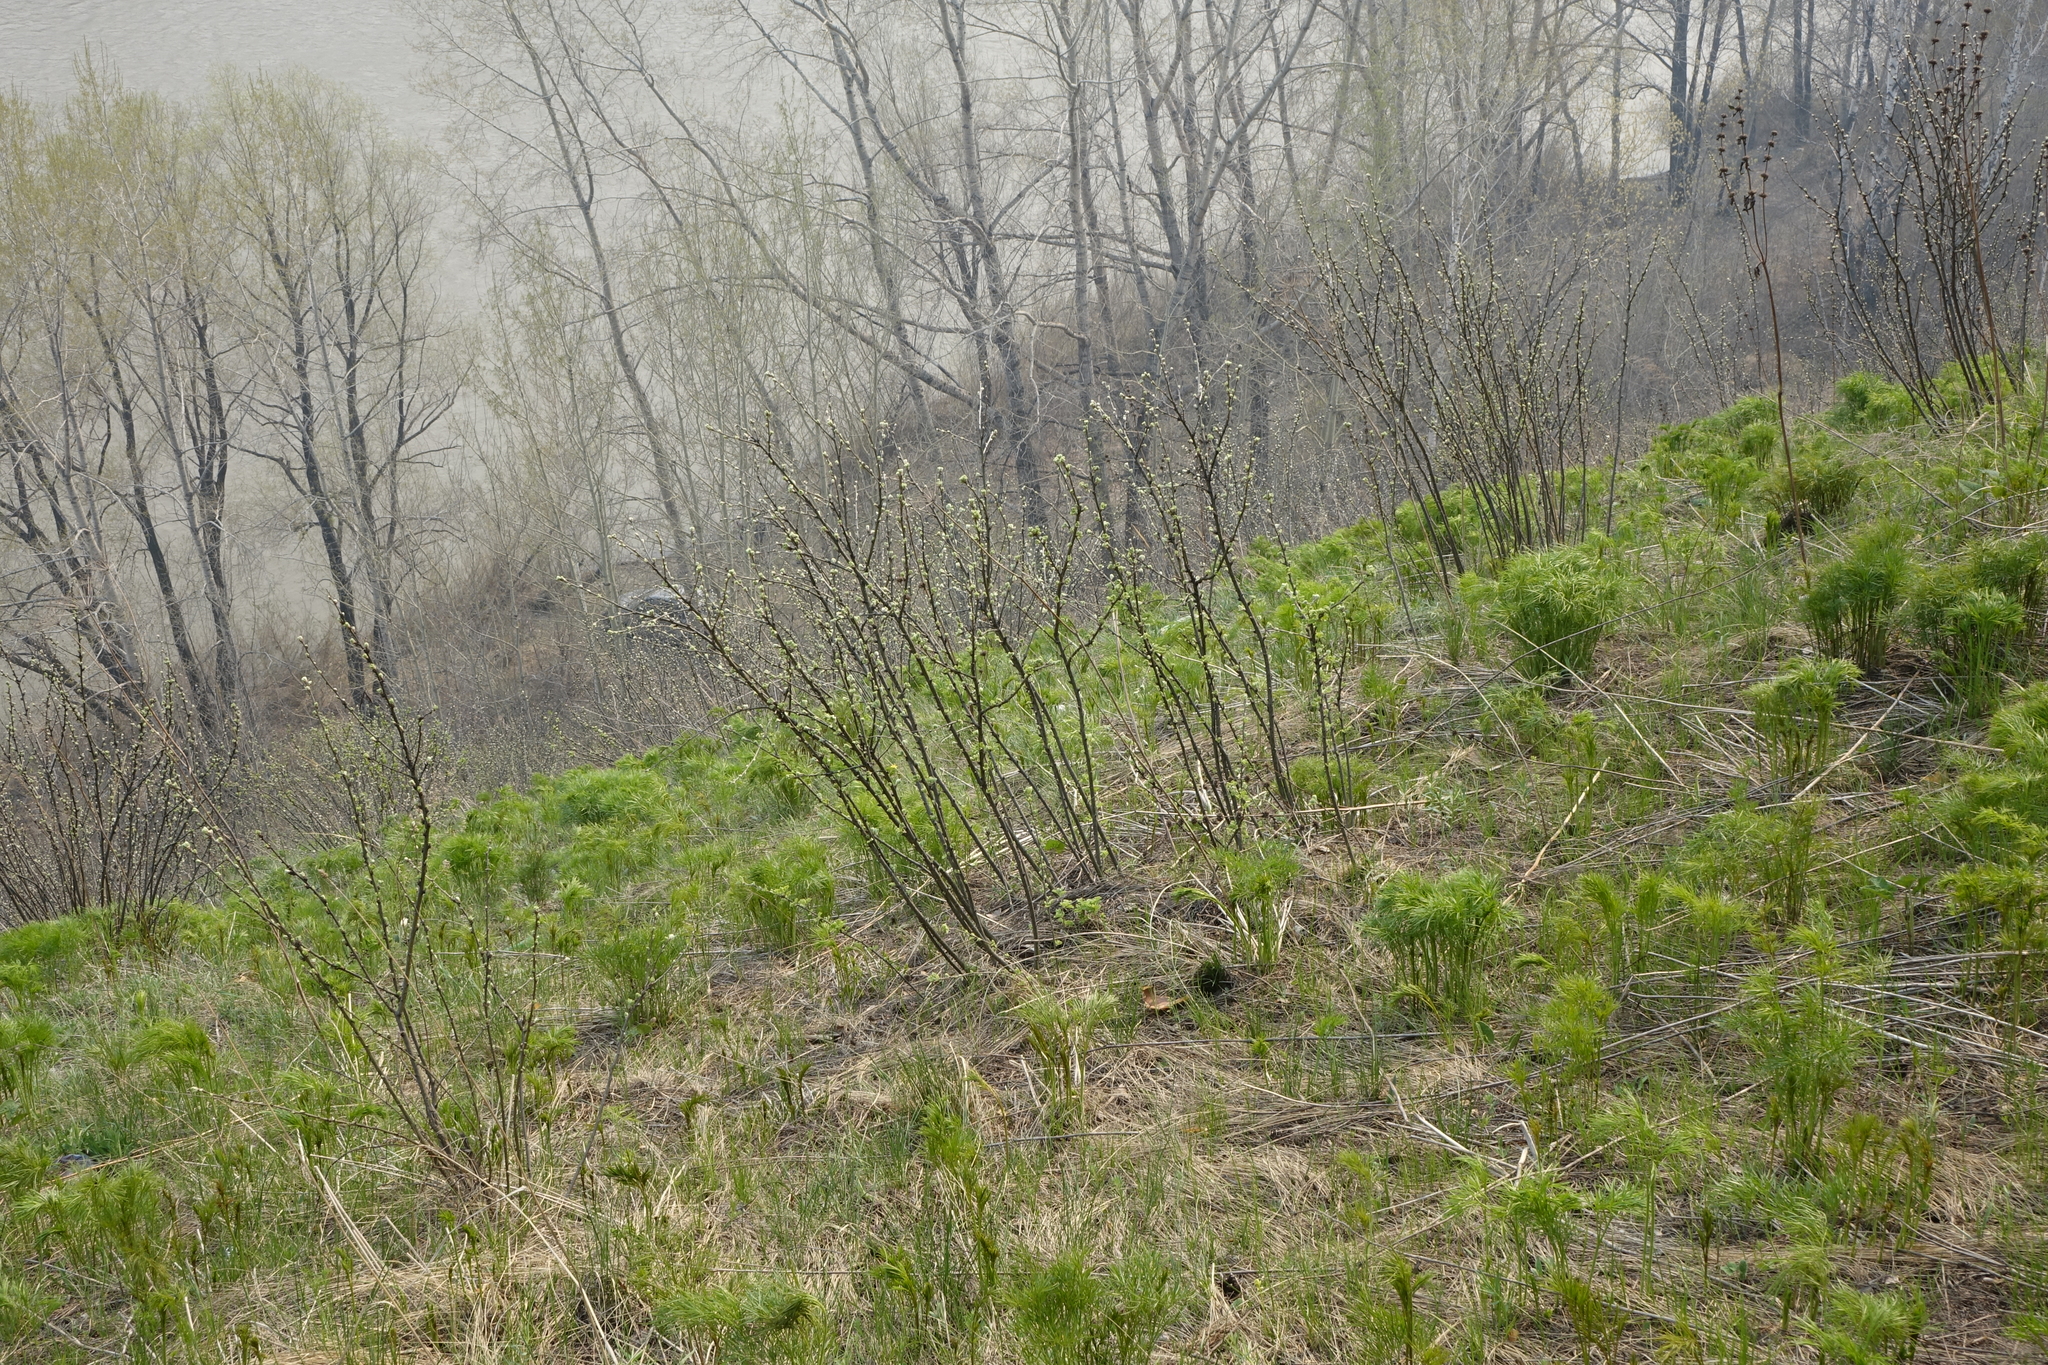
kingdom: Plantae
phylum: Tracheophyta
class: Magnoliopsida
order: Apiales
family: Apiaceae
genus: Peucedanum
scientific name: Peucedanum morisonii
